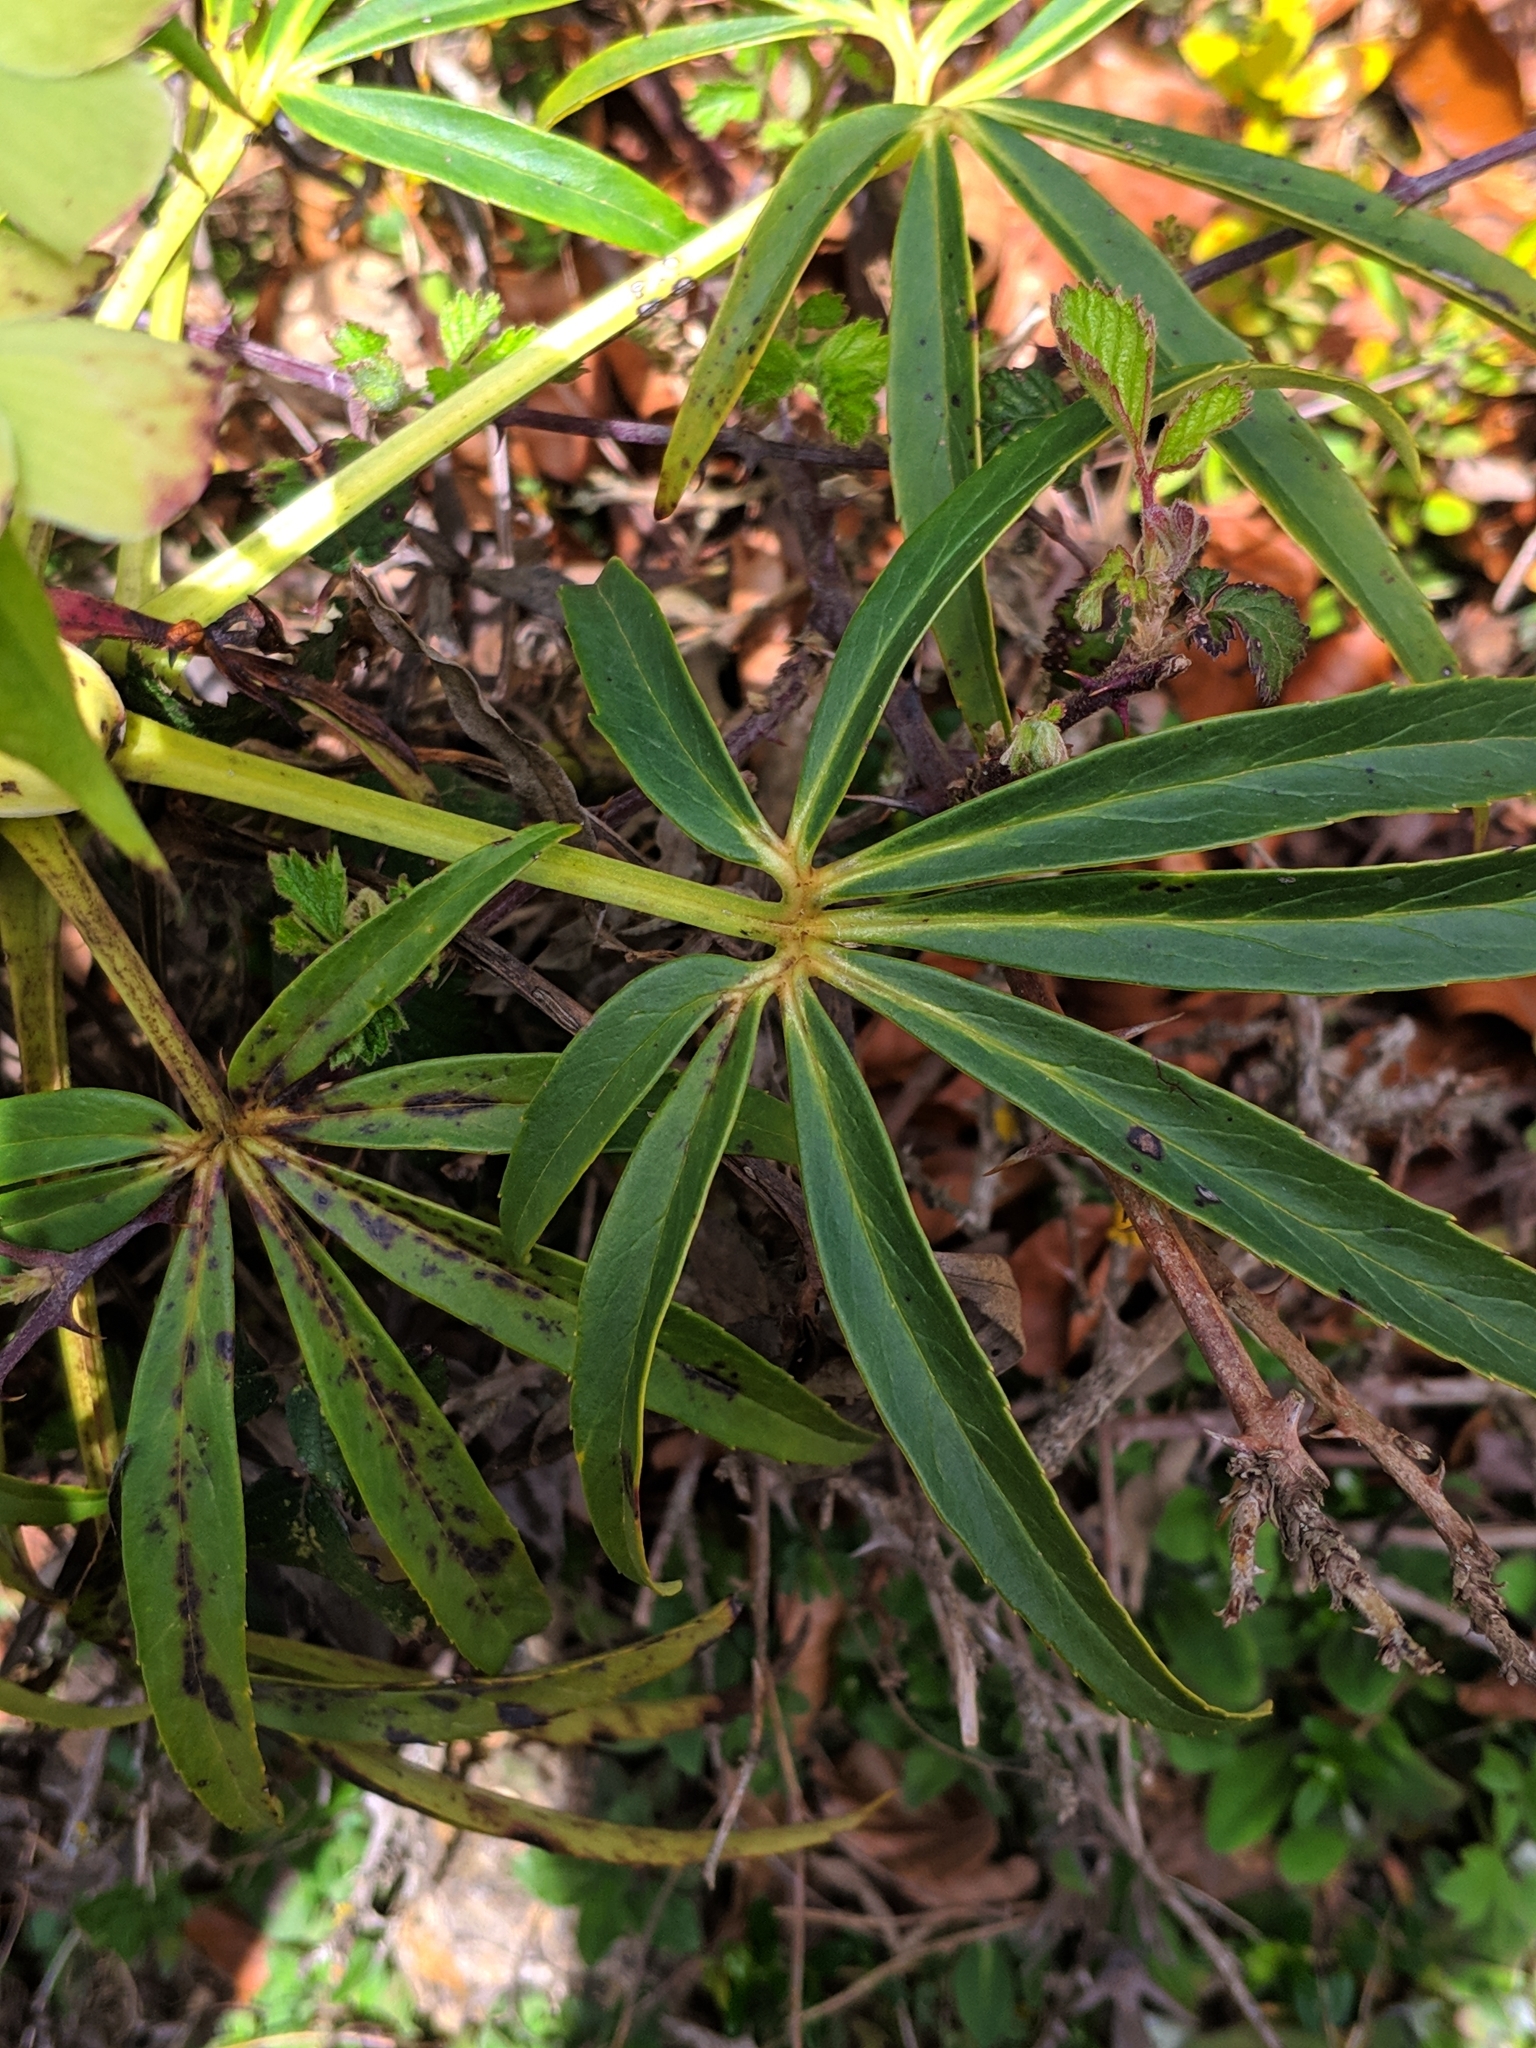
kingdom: Plantae
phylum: Tracheophyta
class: Magnoliopsida
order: Ranunculales
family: Ranunculaceae
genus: Helleborus
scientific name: Helleborus foetidus
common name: Stinking hellebore
